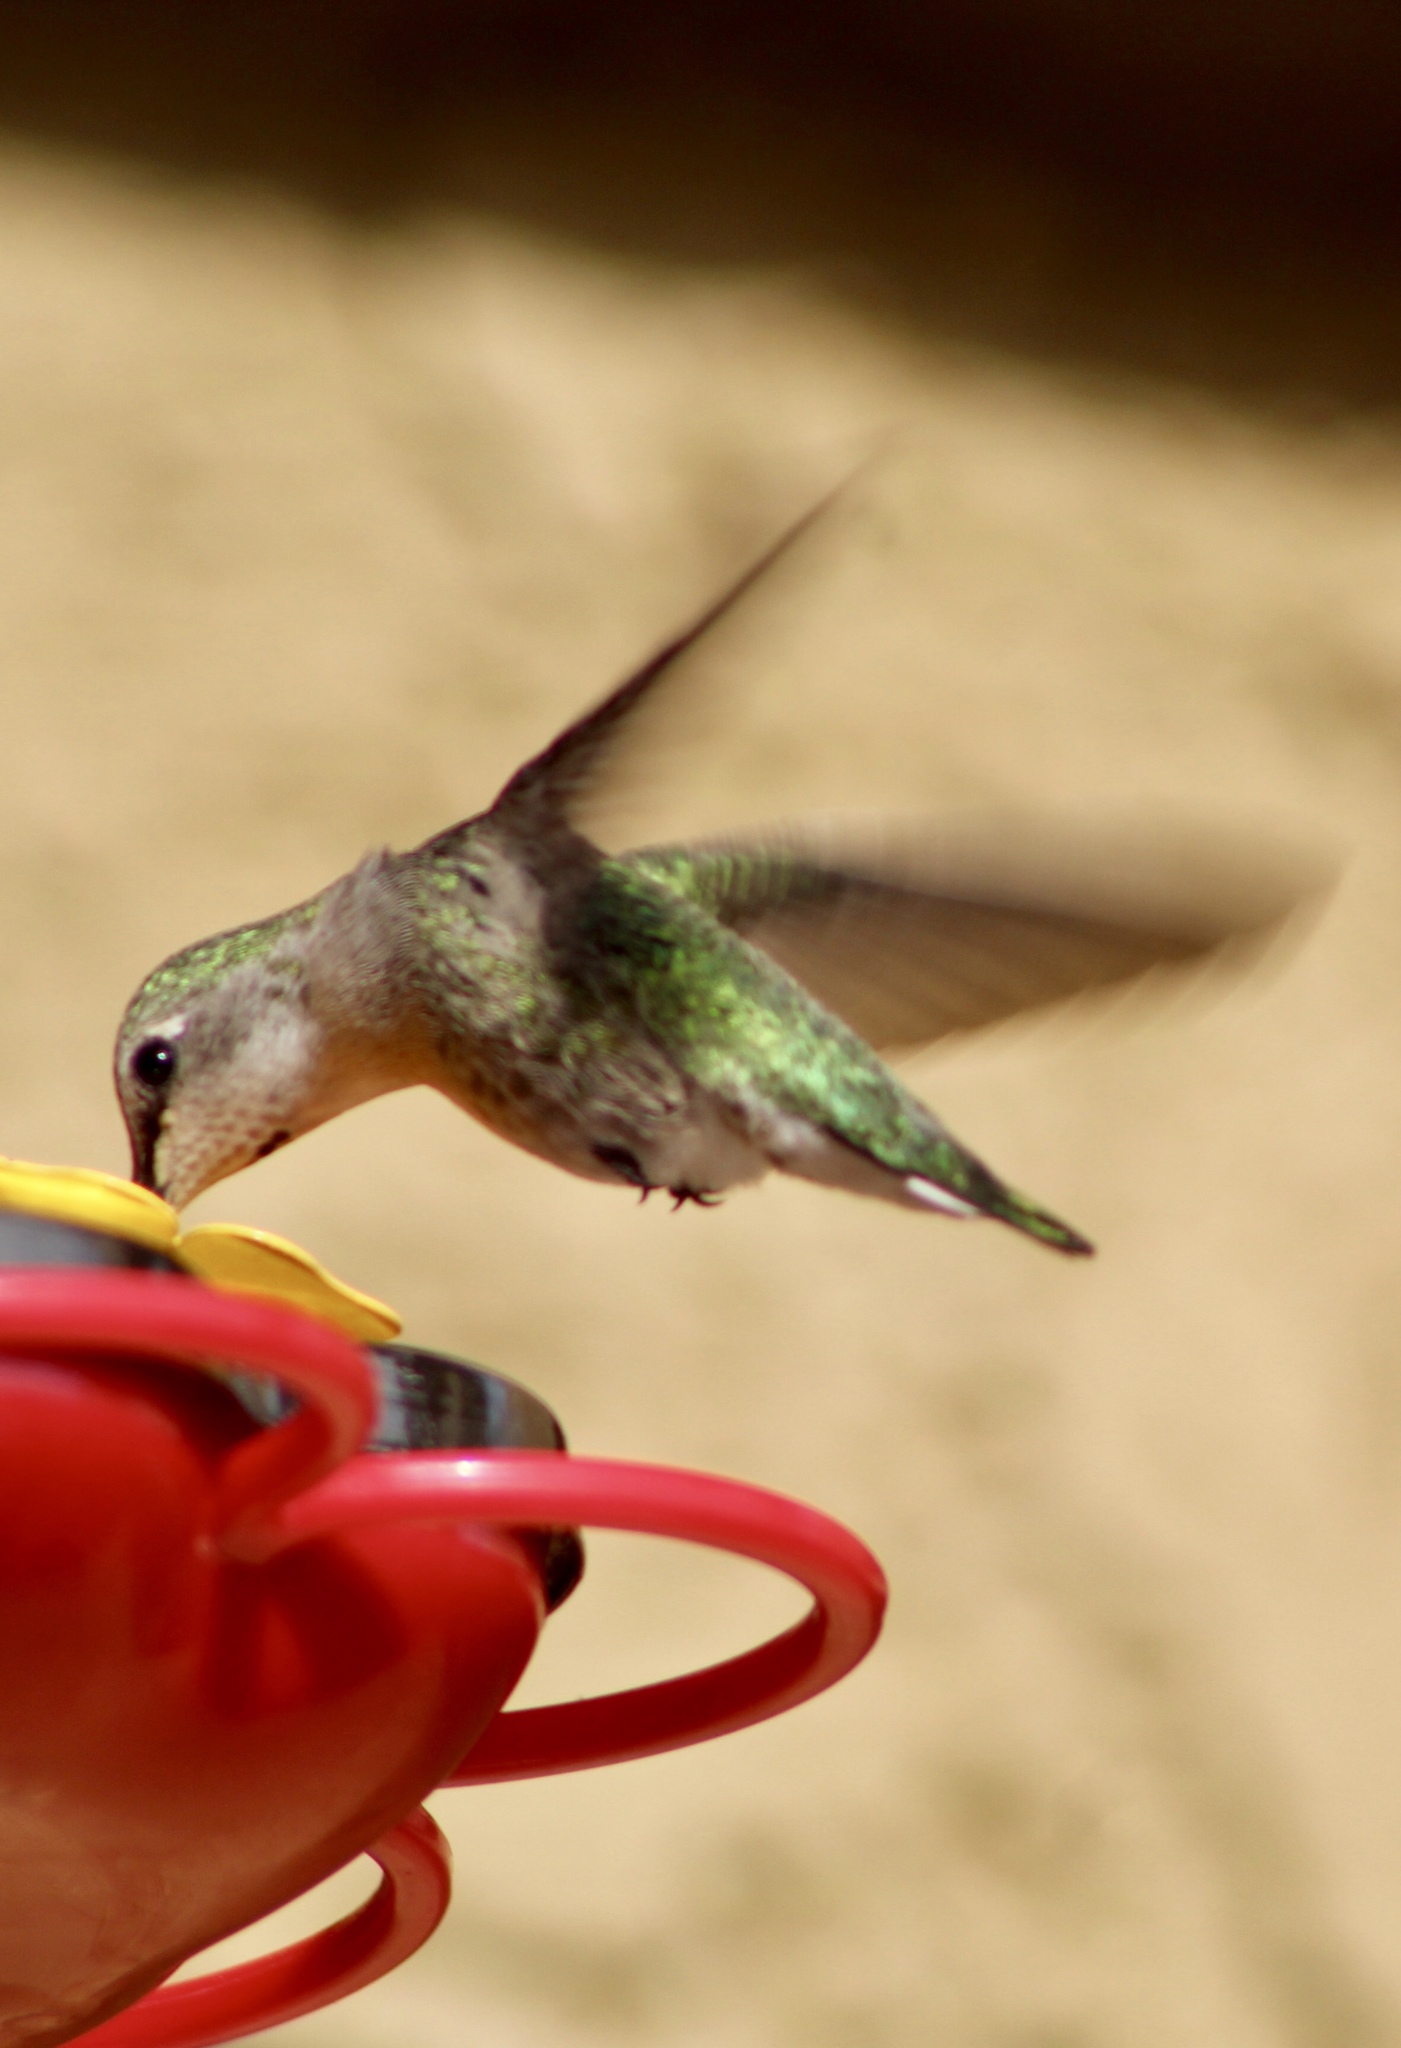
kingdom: Animalia
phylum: Chordata
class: Aves
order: Apodiformes
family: Trochilidae
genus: Calypte
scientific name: Calypte costae
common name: Costa's hummingbird
